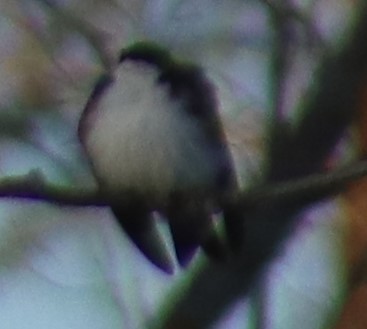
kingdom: Animalia
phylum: Chordata
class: Aves
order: Passeriformes
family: Hirundinidae
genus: Tachycineta
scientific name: Tachycineta bicolor
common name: Tree swallow
